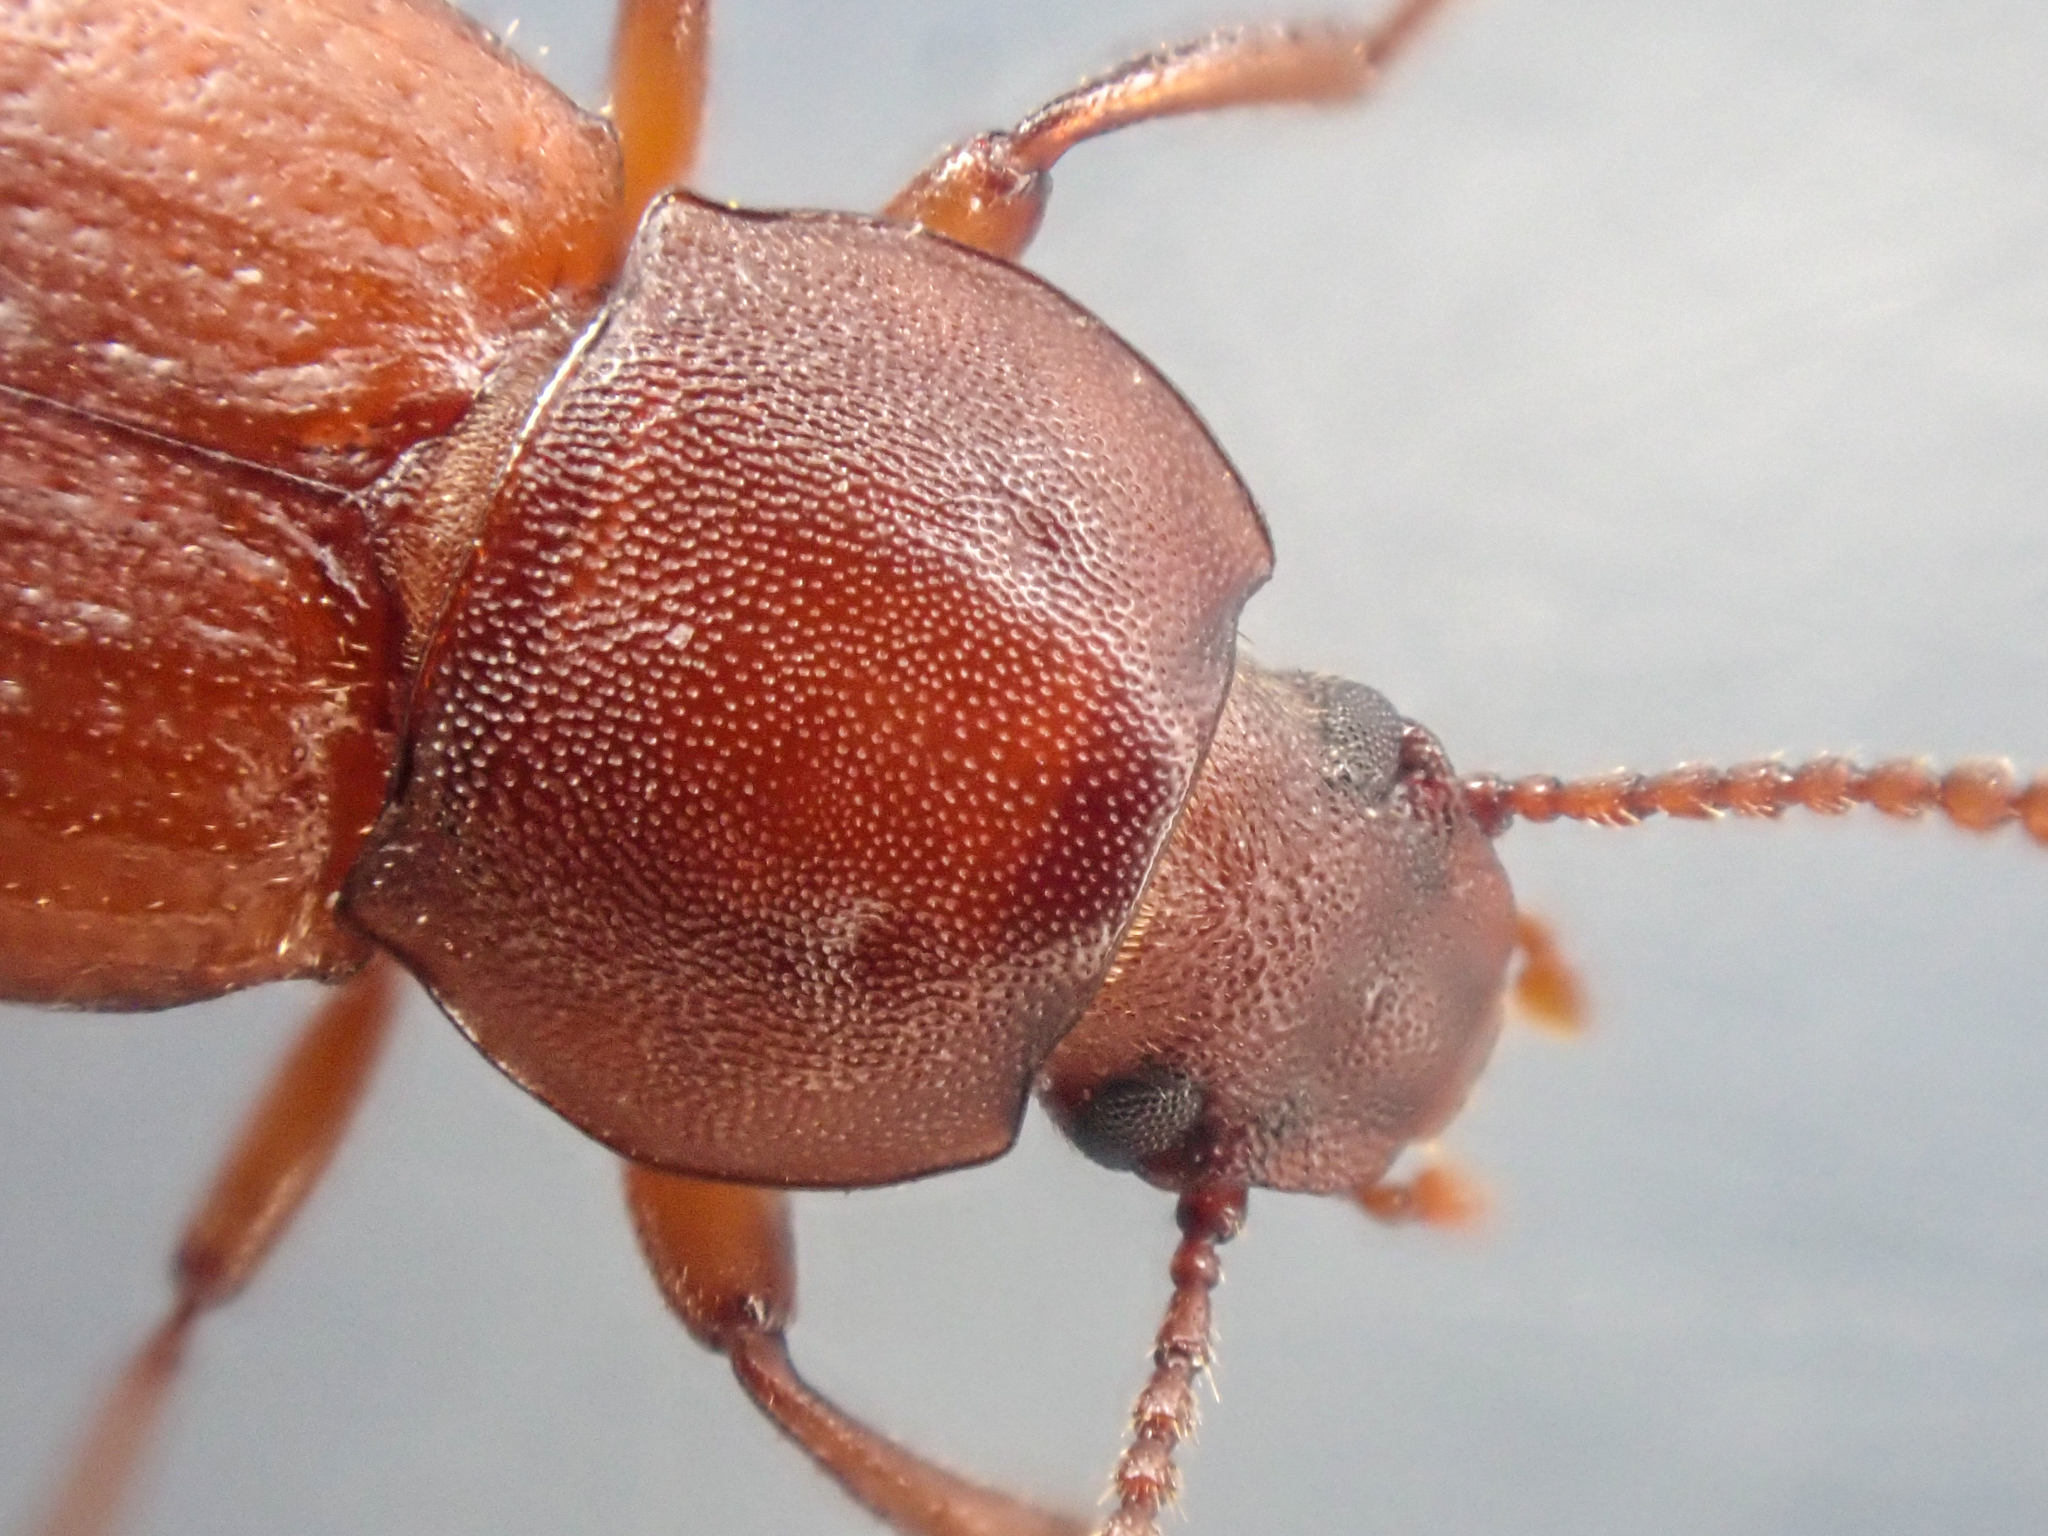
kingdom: Animalia
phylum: Arthropoda
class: Insecta
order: Coleoptera
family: Tenebrionidae
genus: Epantius
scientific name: Epantius obscurus
